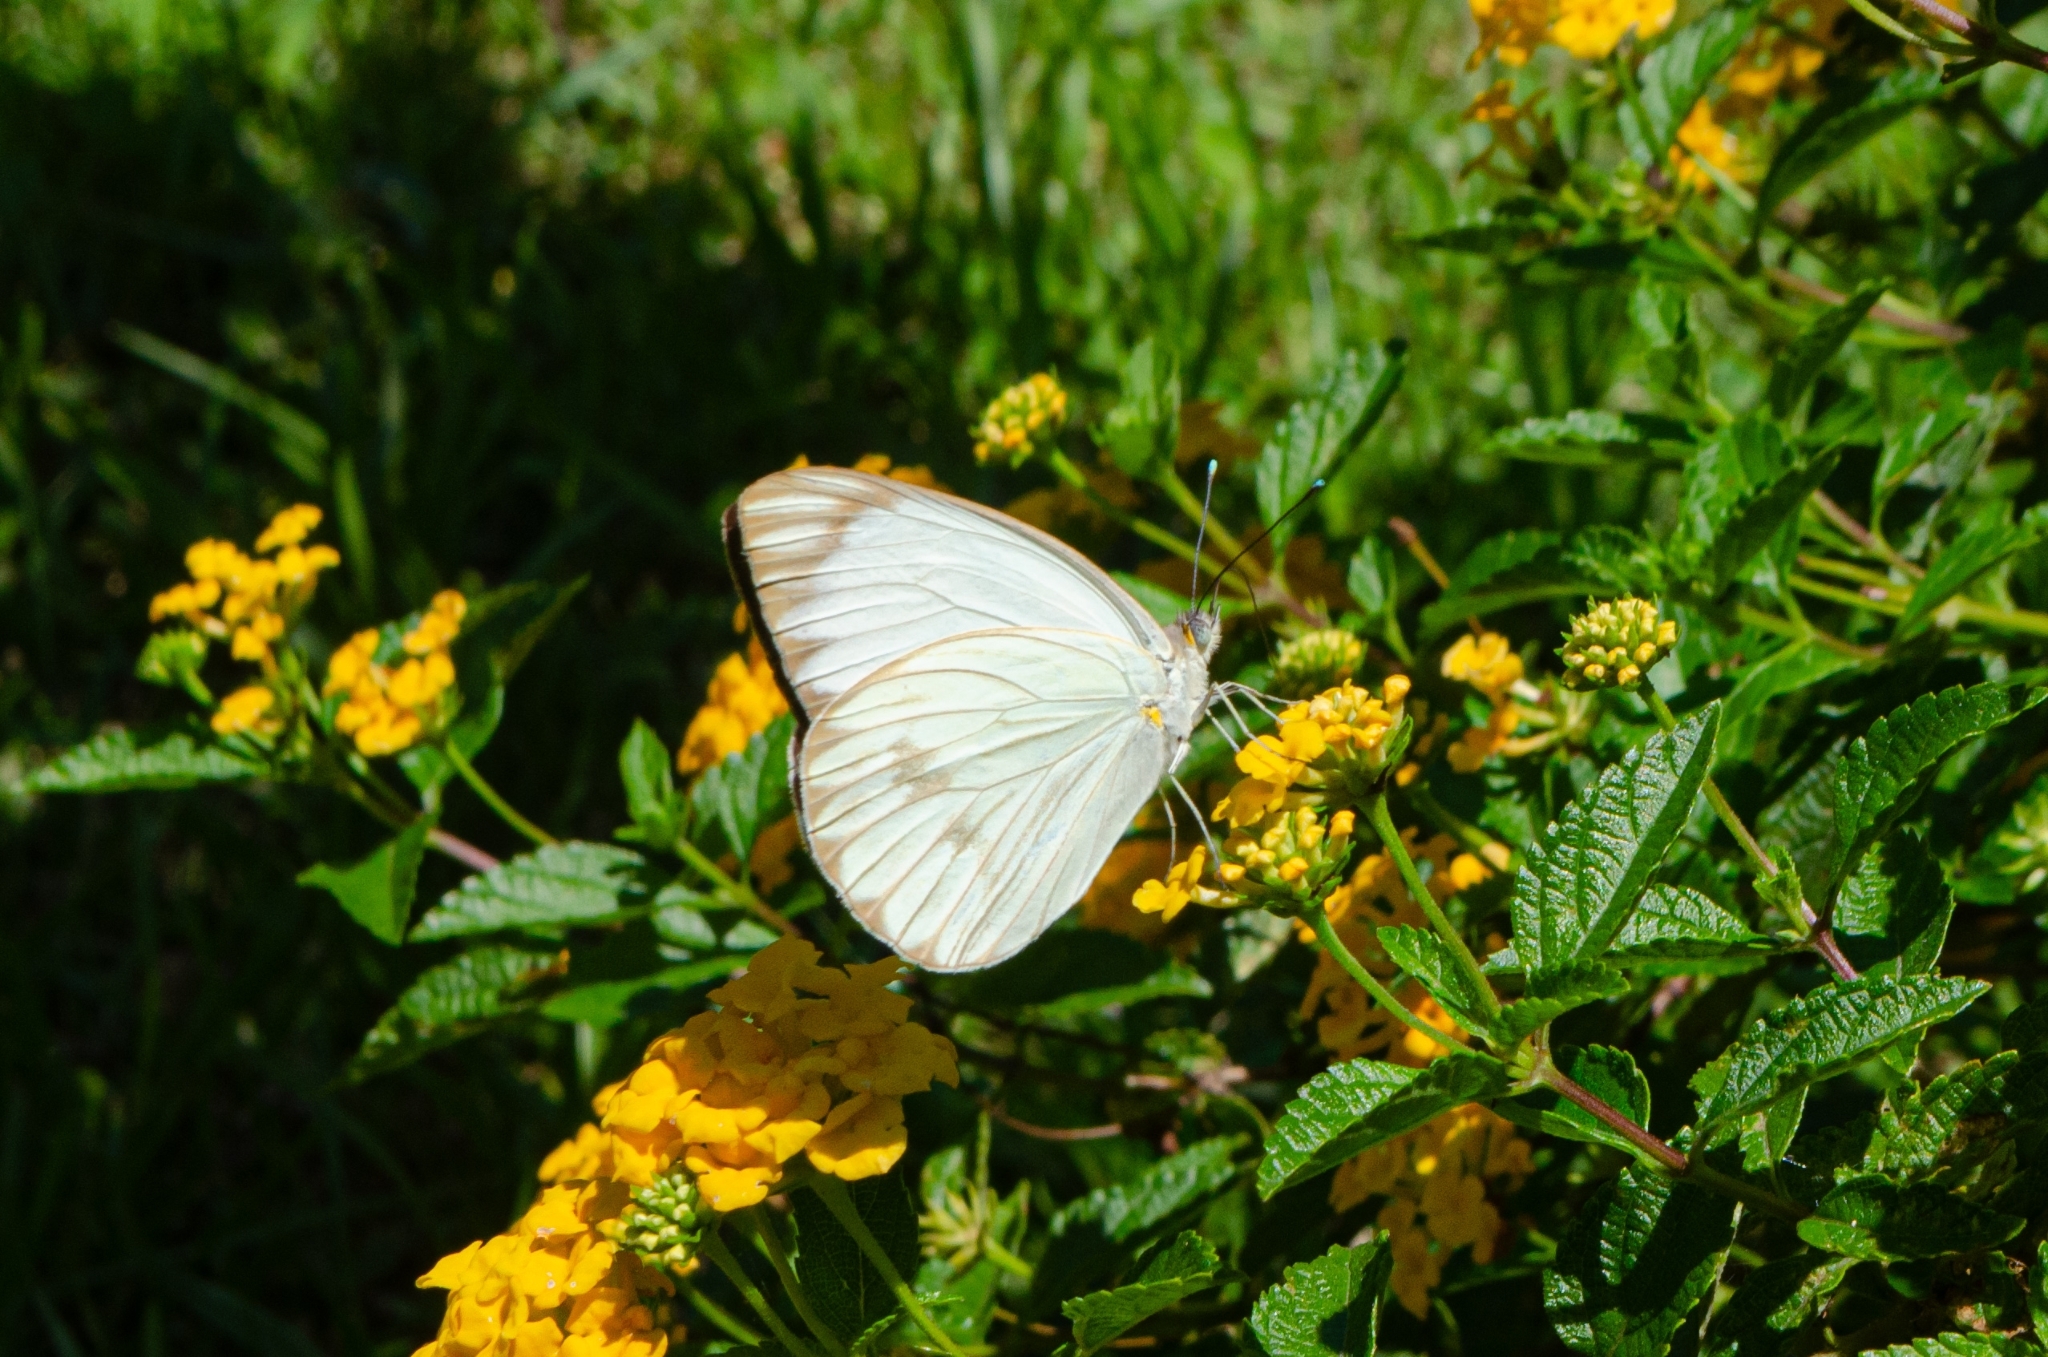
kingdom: Animalia
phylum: Arthropoda
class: Insecta
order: Lepidoptera
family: Pieridae
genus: Ascia
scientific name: Ascia monuste
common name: Great southern white
